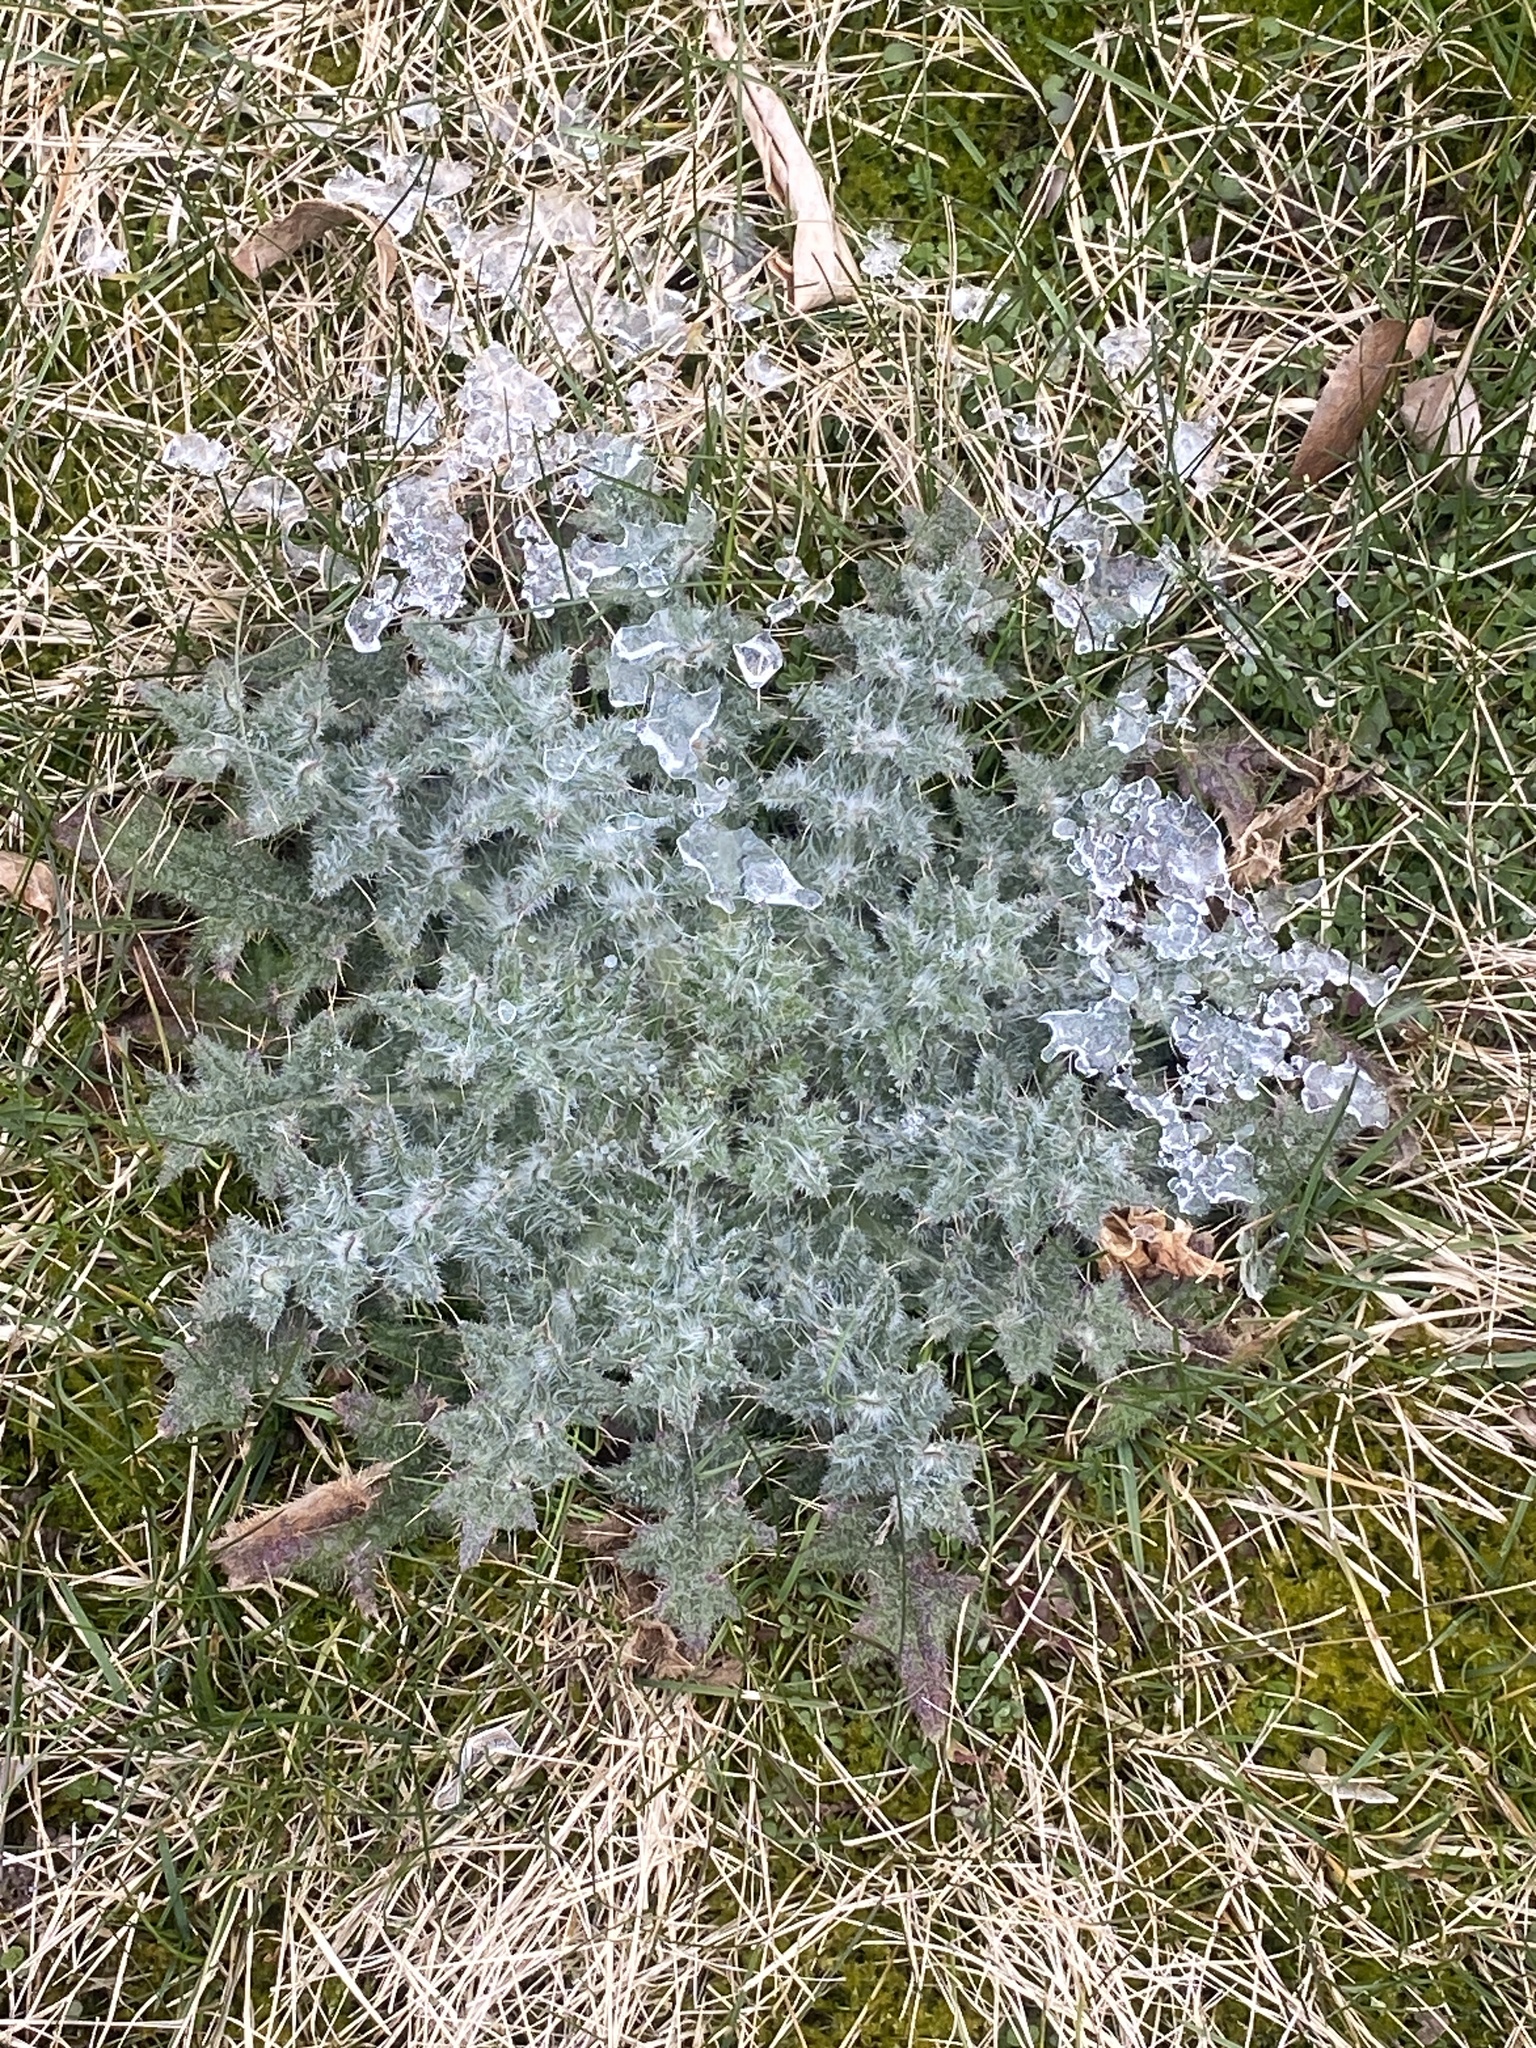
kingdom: Plantae
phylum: Tracheophyta
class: Magnoliopsida
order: Asterales
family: Asteraceae
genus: Cirsium
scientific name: Cirsium vulgare
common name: Bull thistle
